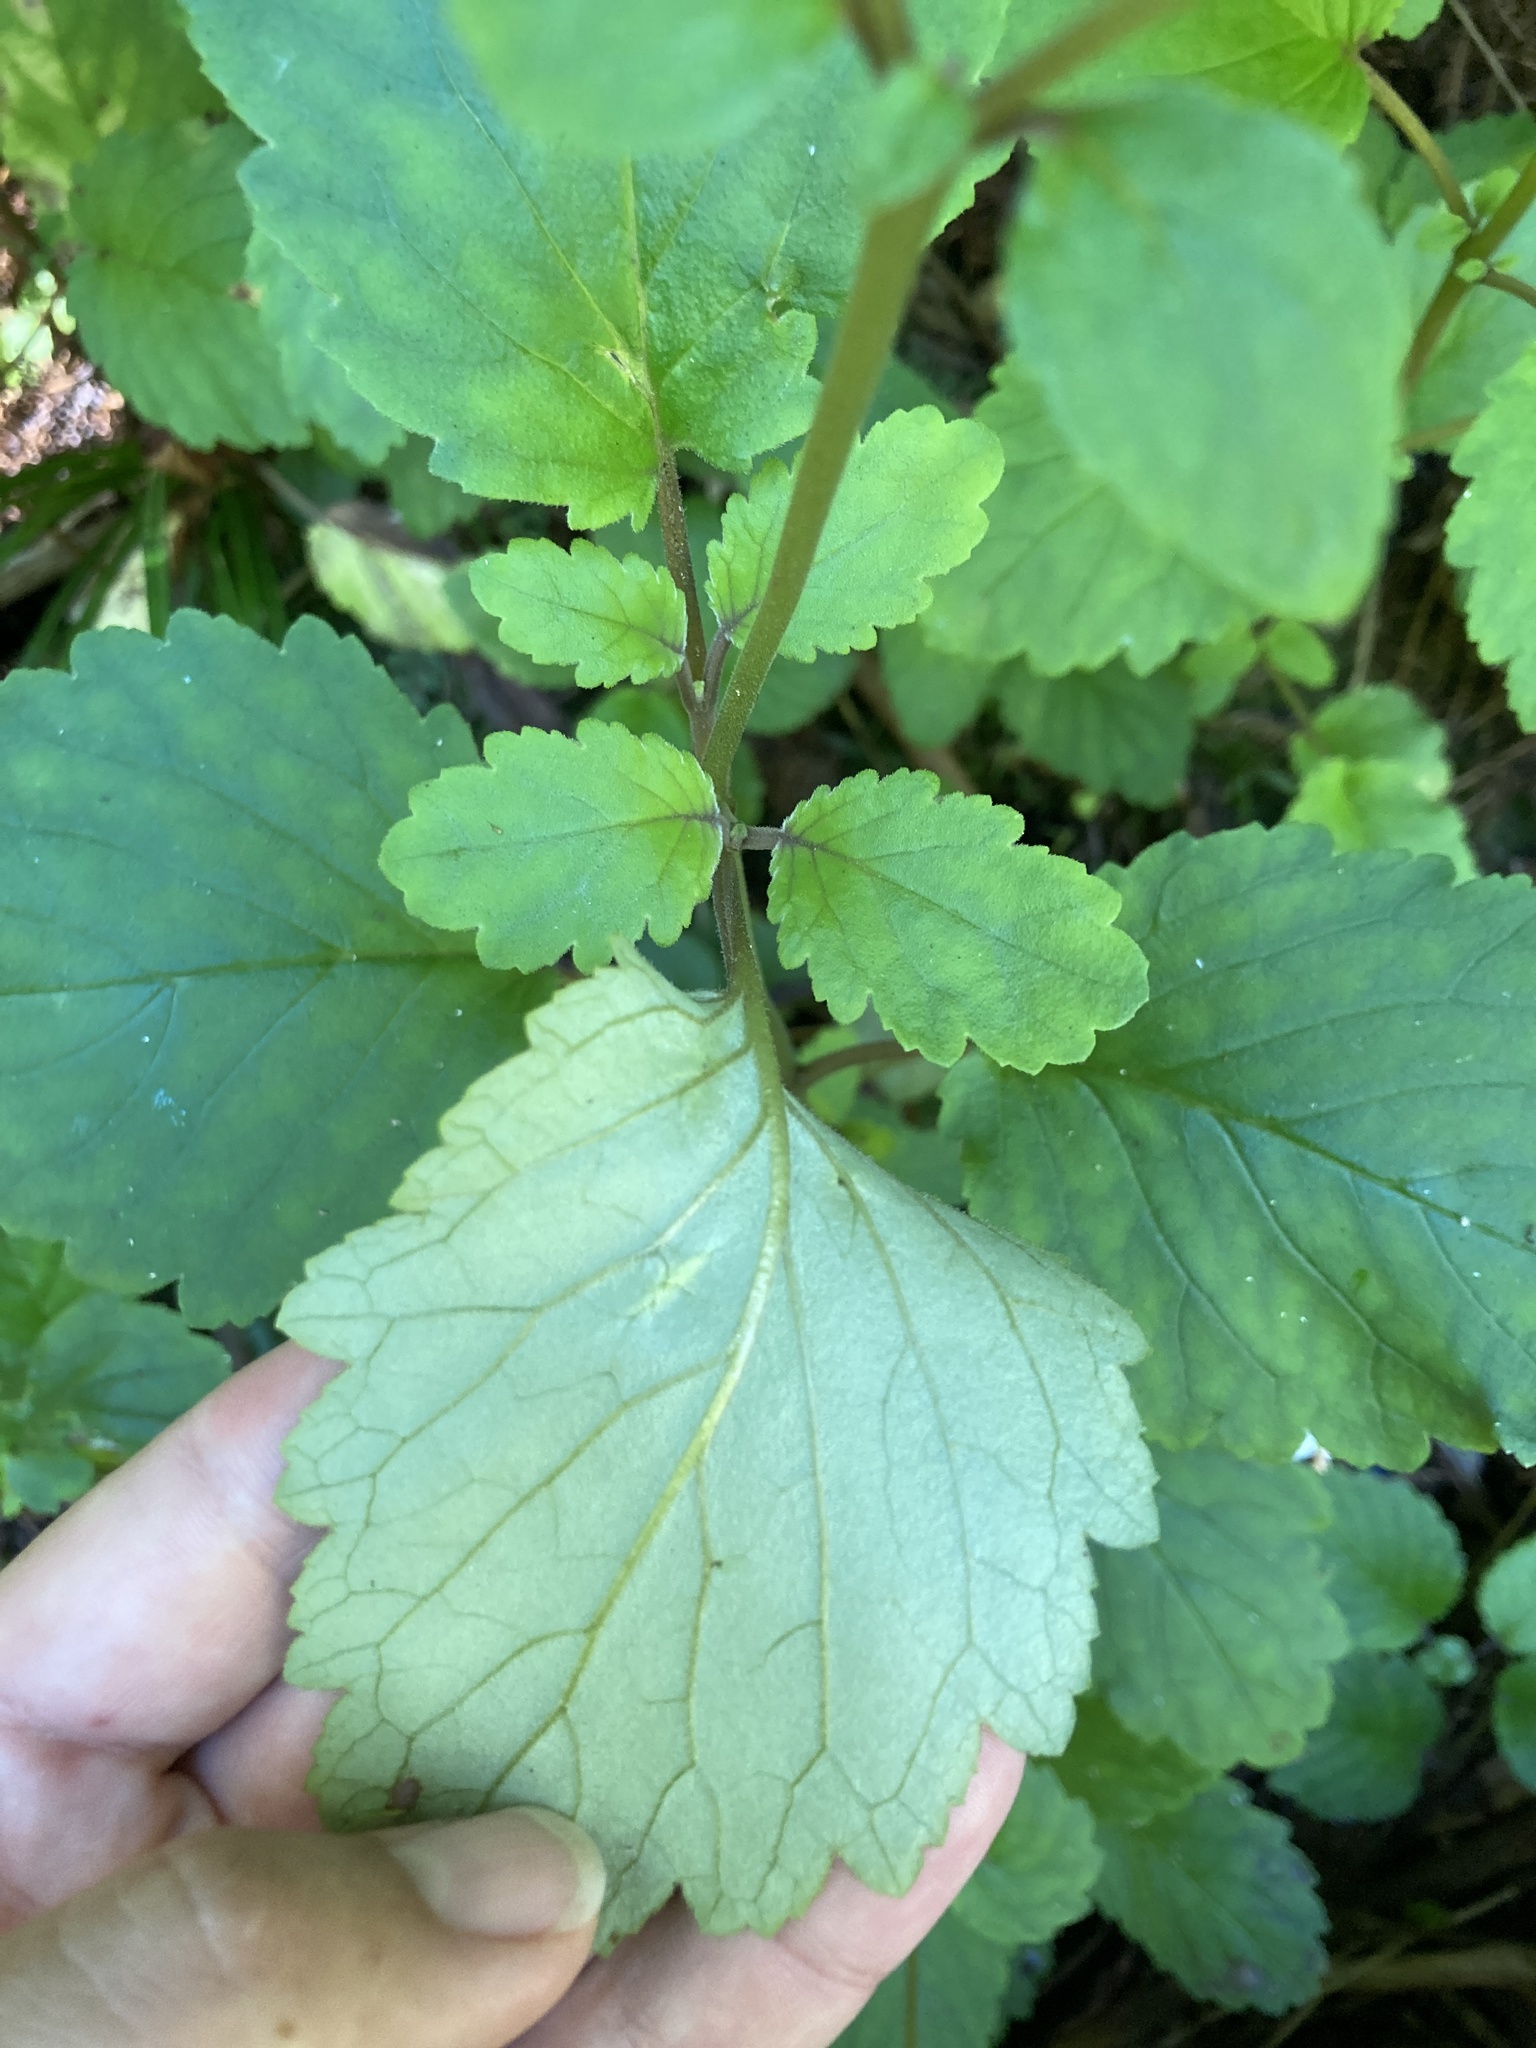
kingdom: Plantae
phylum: Tracheophyta
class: Magnoliopsida
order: Lamiales
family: Calceolariaceae
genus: Jovellana
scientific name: Jovellana sinclairii
